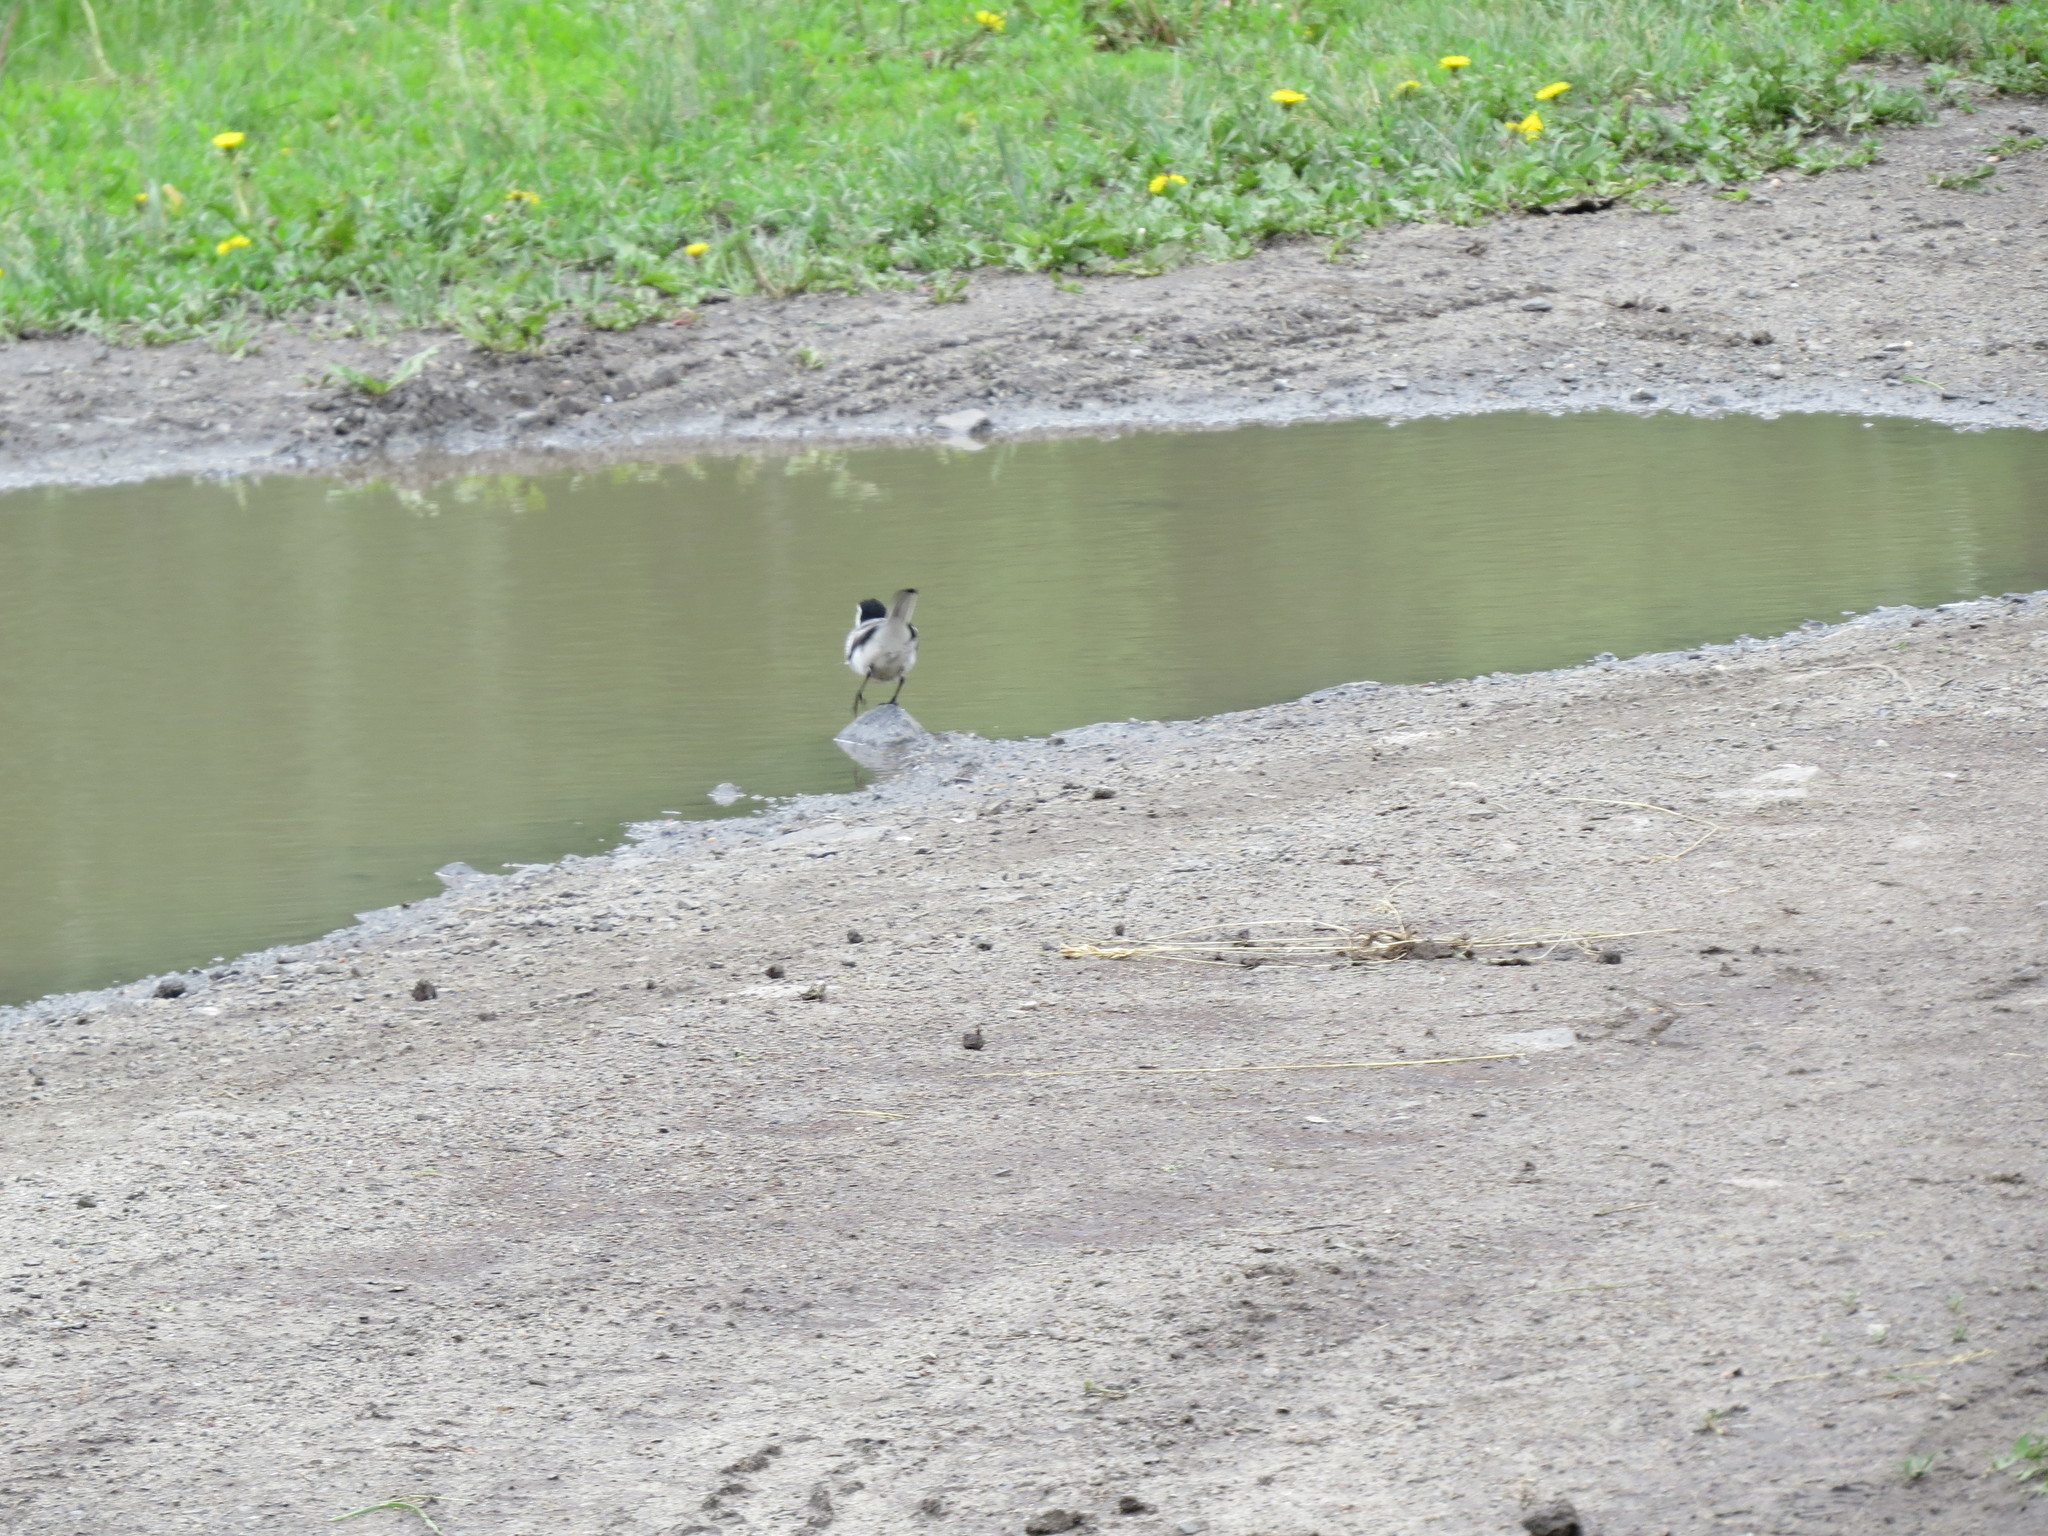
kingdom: Animalia
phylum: Chordata
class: Aves
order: Passeriformes
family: Motacillidae
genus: Motacilla
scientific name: Motacilla alba
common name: White wagtail
